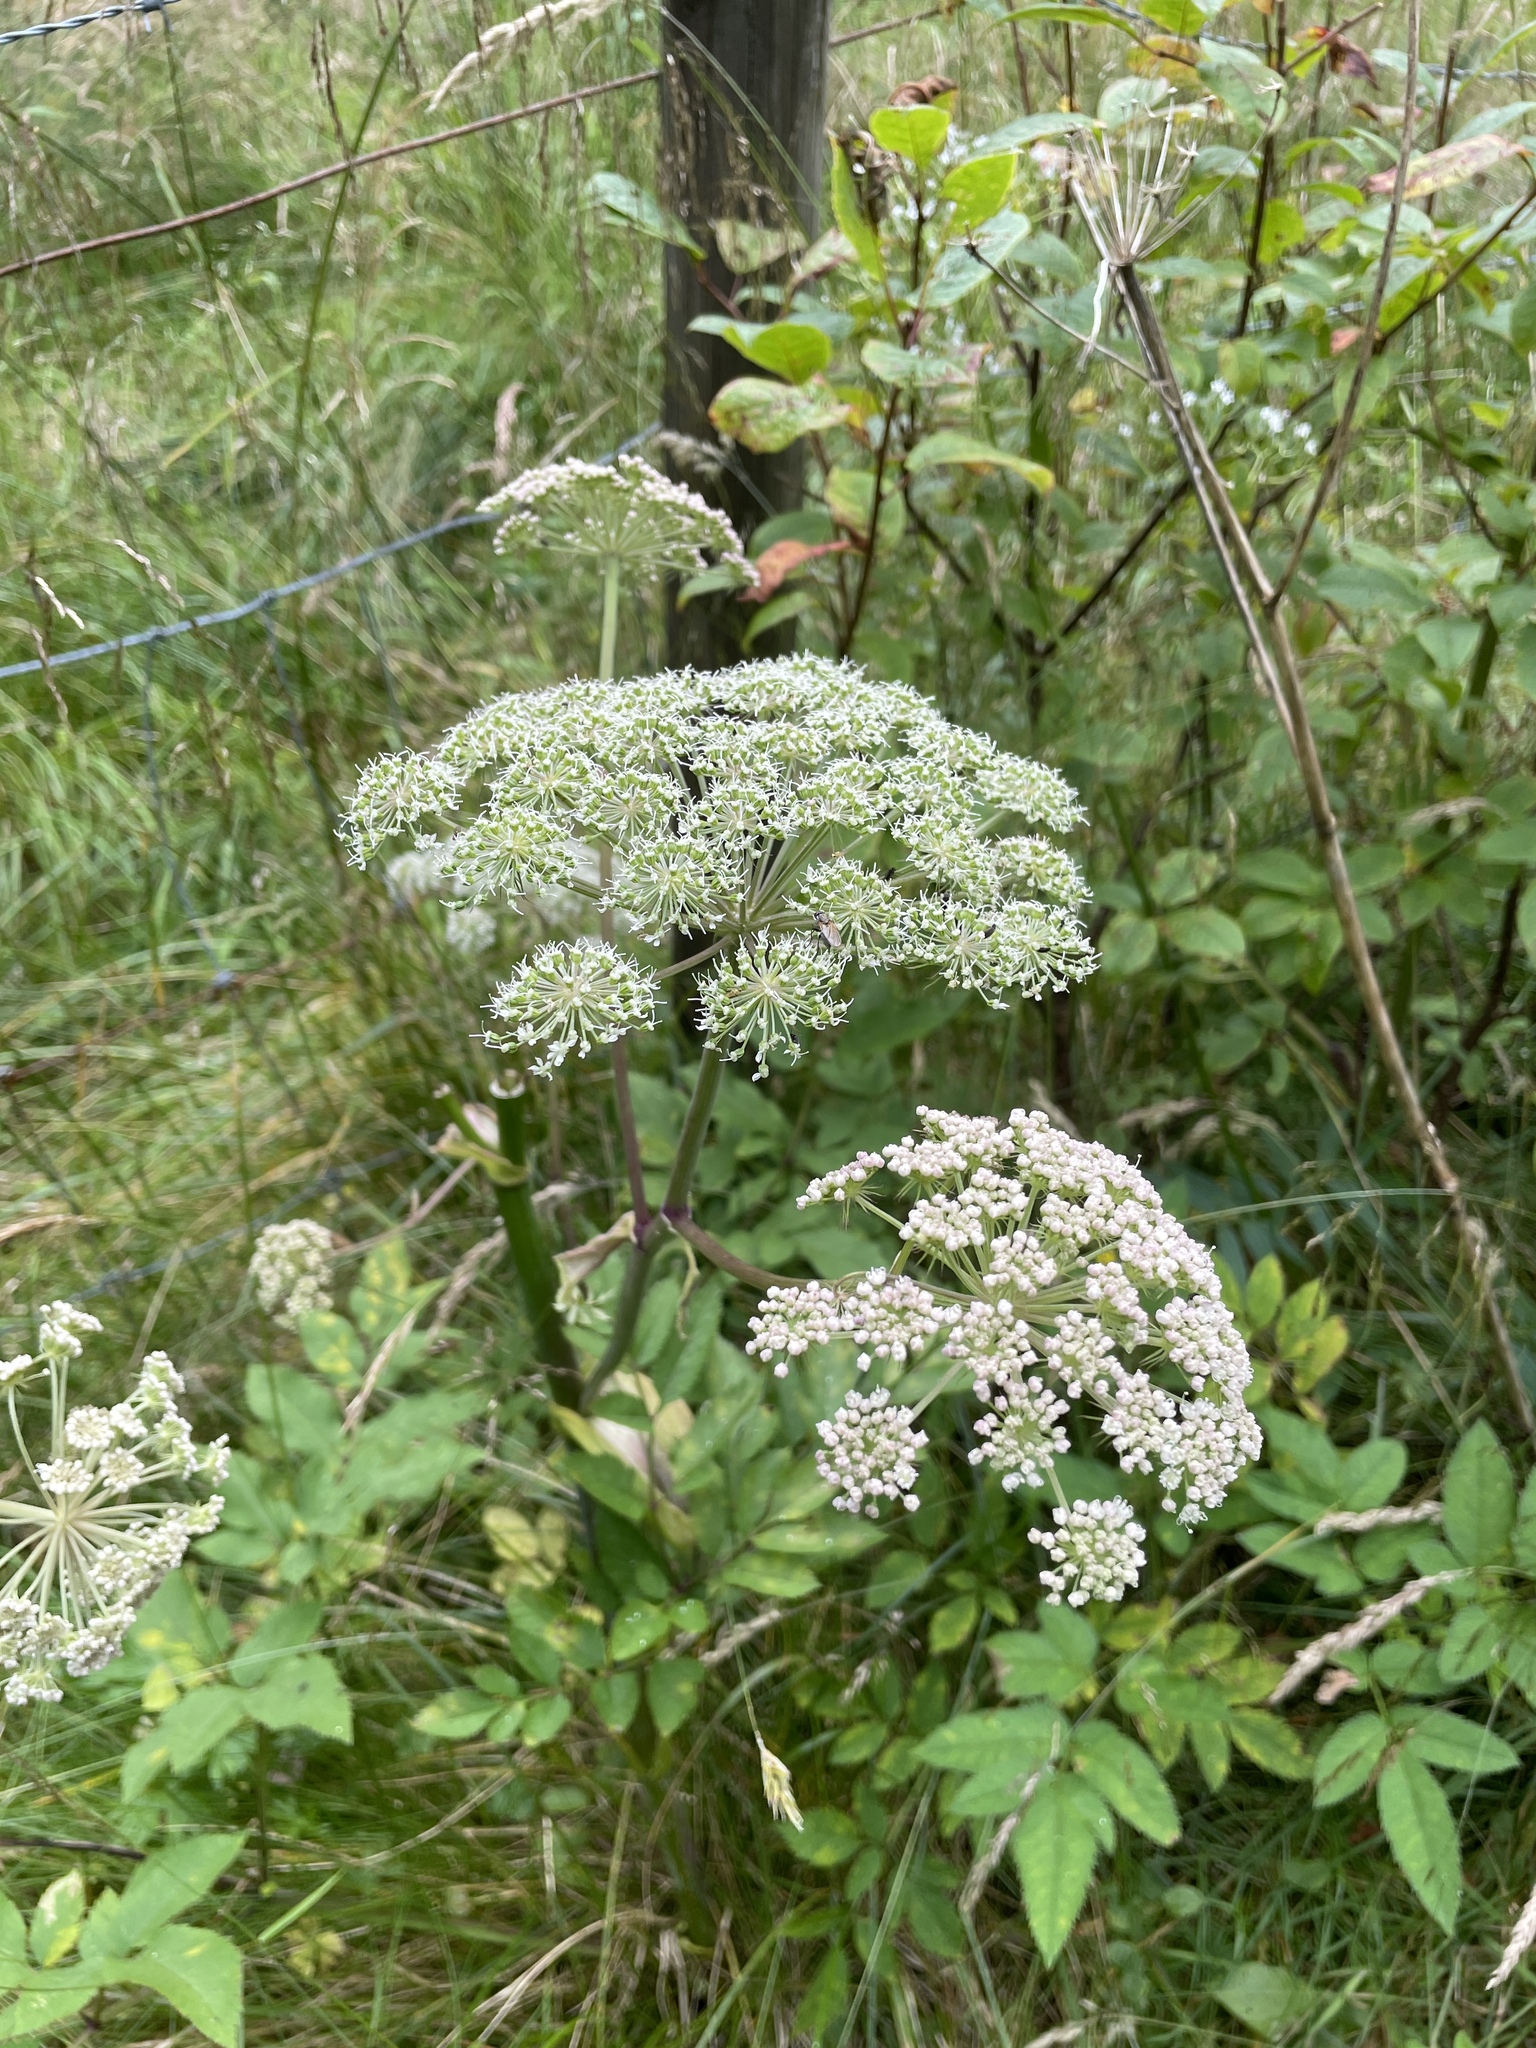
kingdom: Plantae
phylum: Tracheophyta
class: Magnoliopsida
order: Apiales
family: Apiaceae
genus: Angelica
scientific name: Angelica sylvestris
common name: Wild angelica
